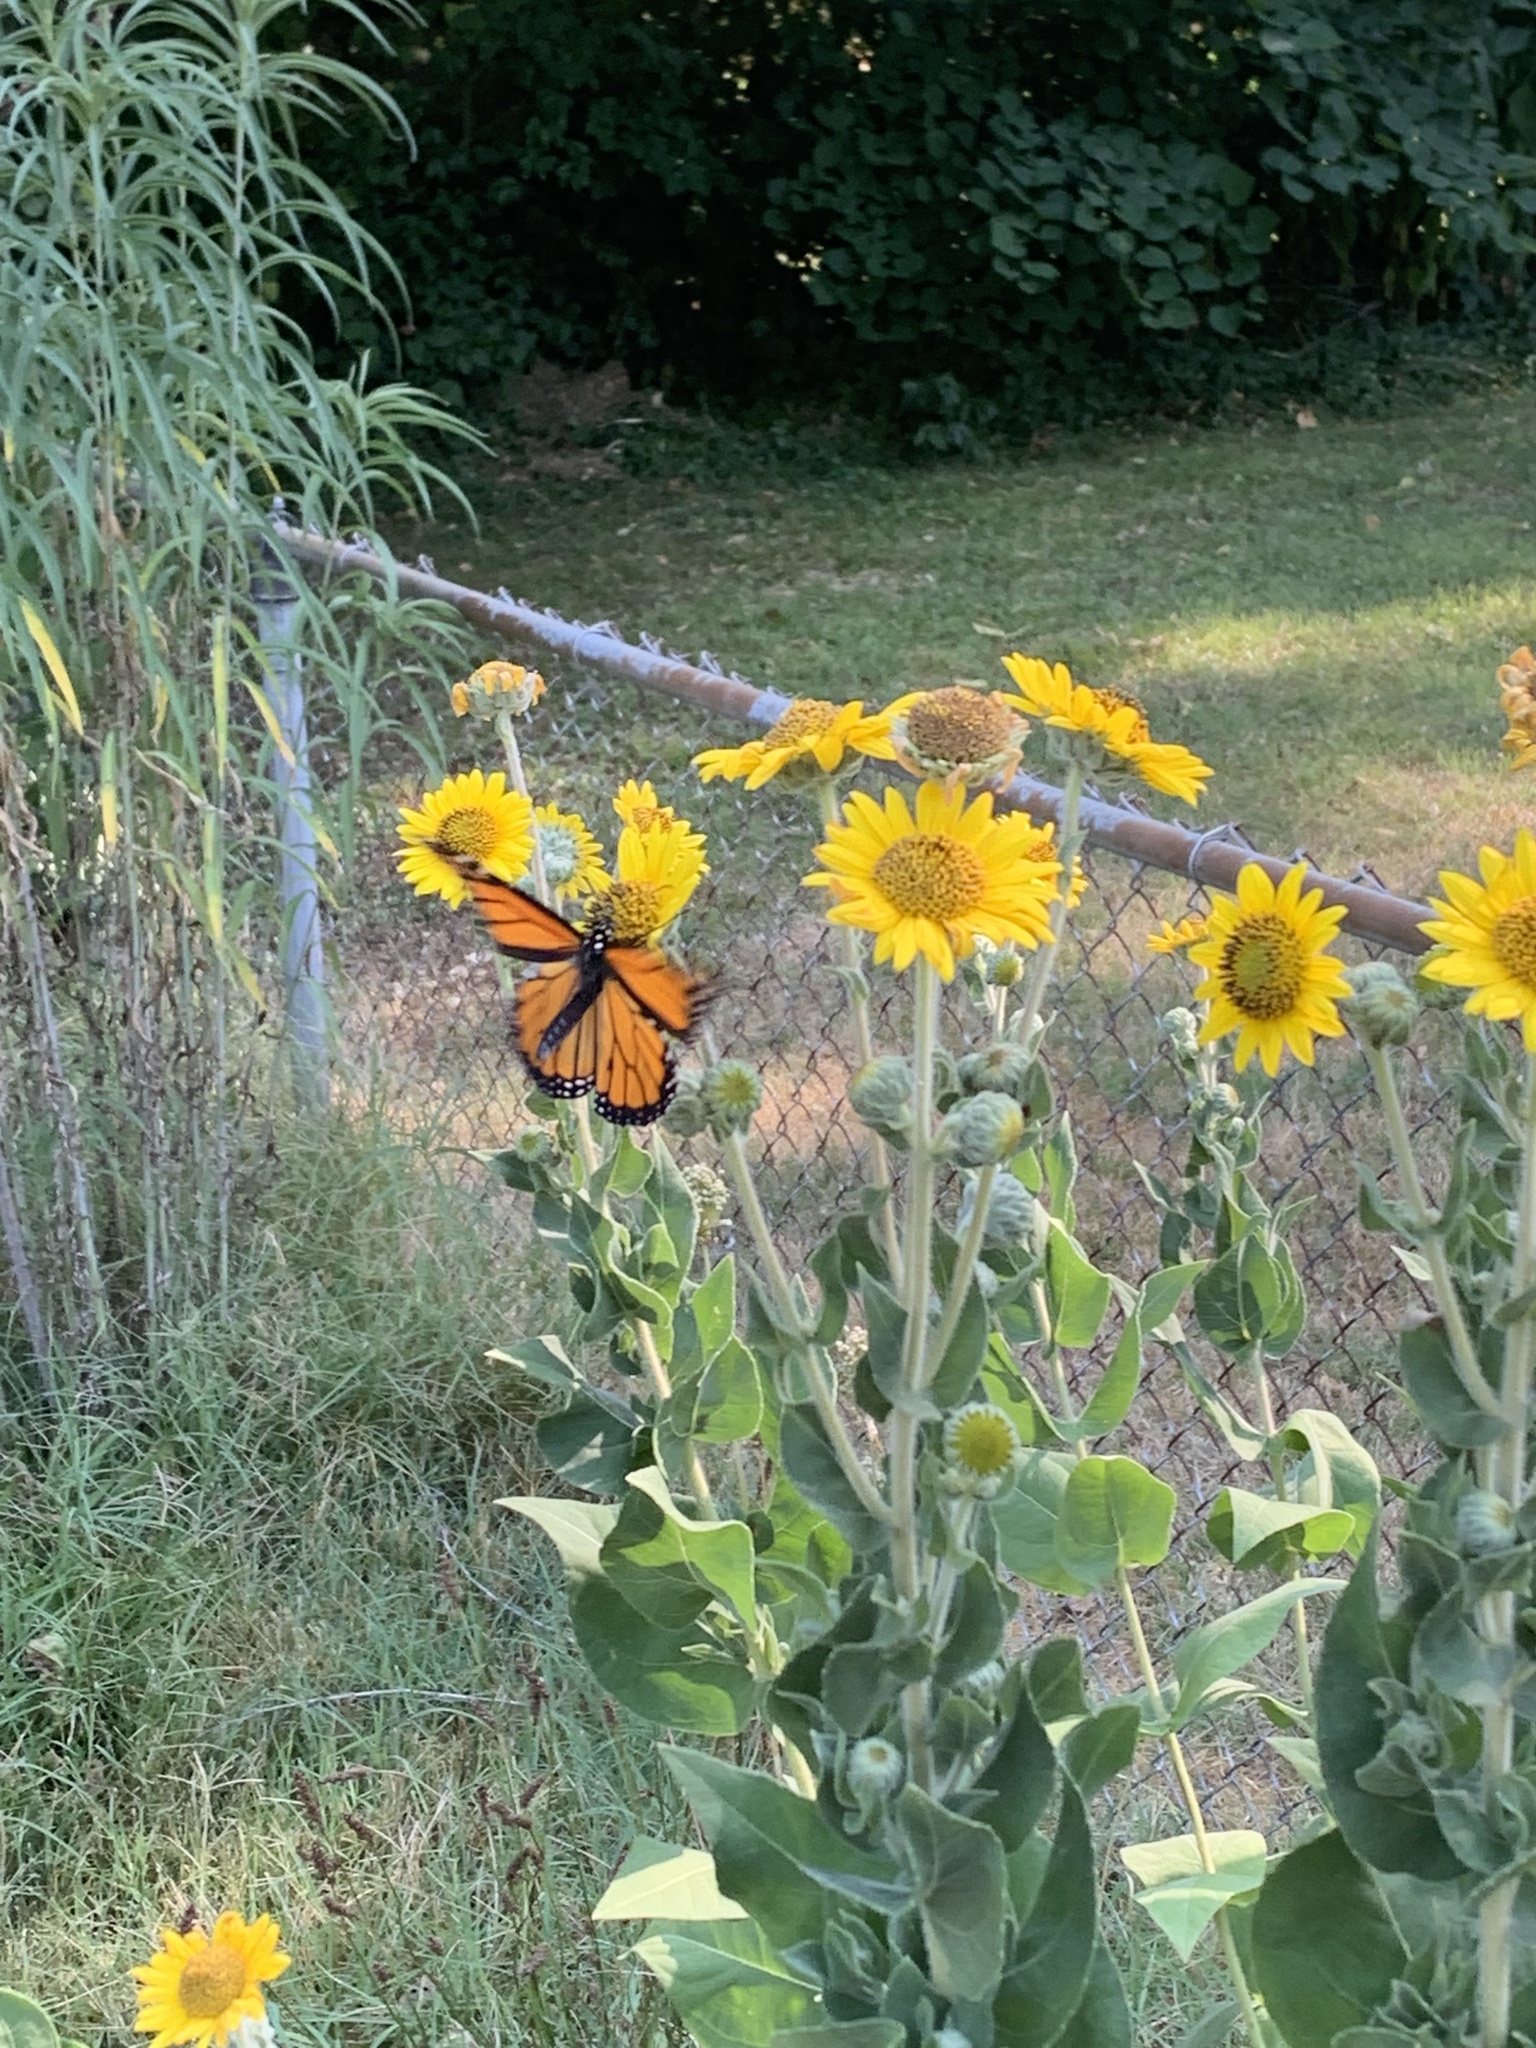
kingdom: Animalia
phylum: Arthropoda
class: Insecta
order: Lepidoptera
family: Nymphalidae
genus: Danaus
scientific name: Danaus plexippus
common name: Monarch
